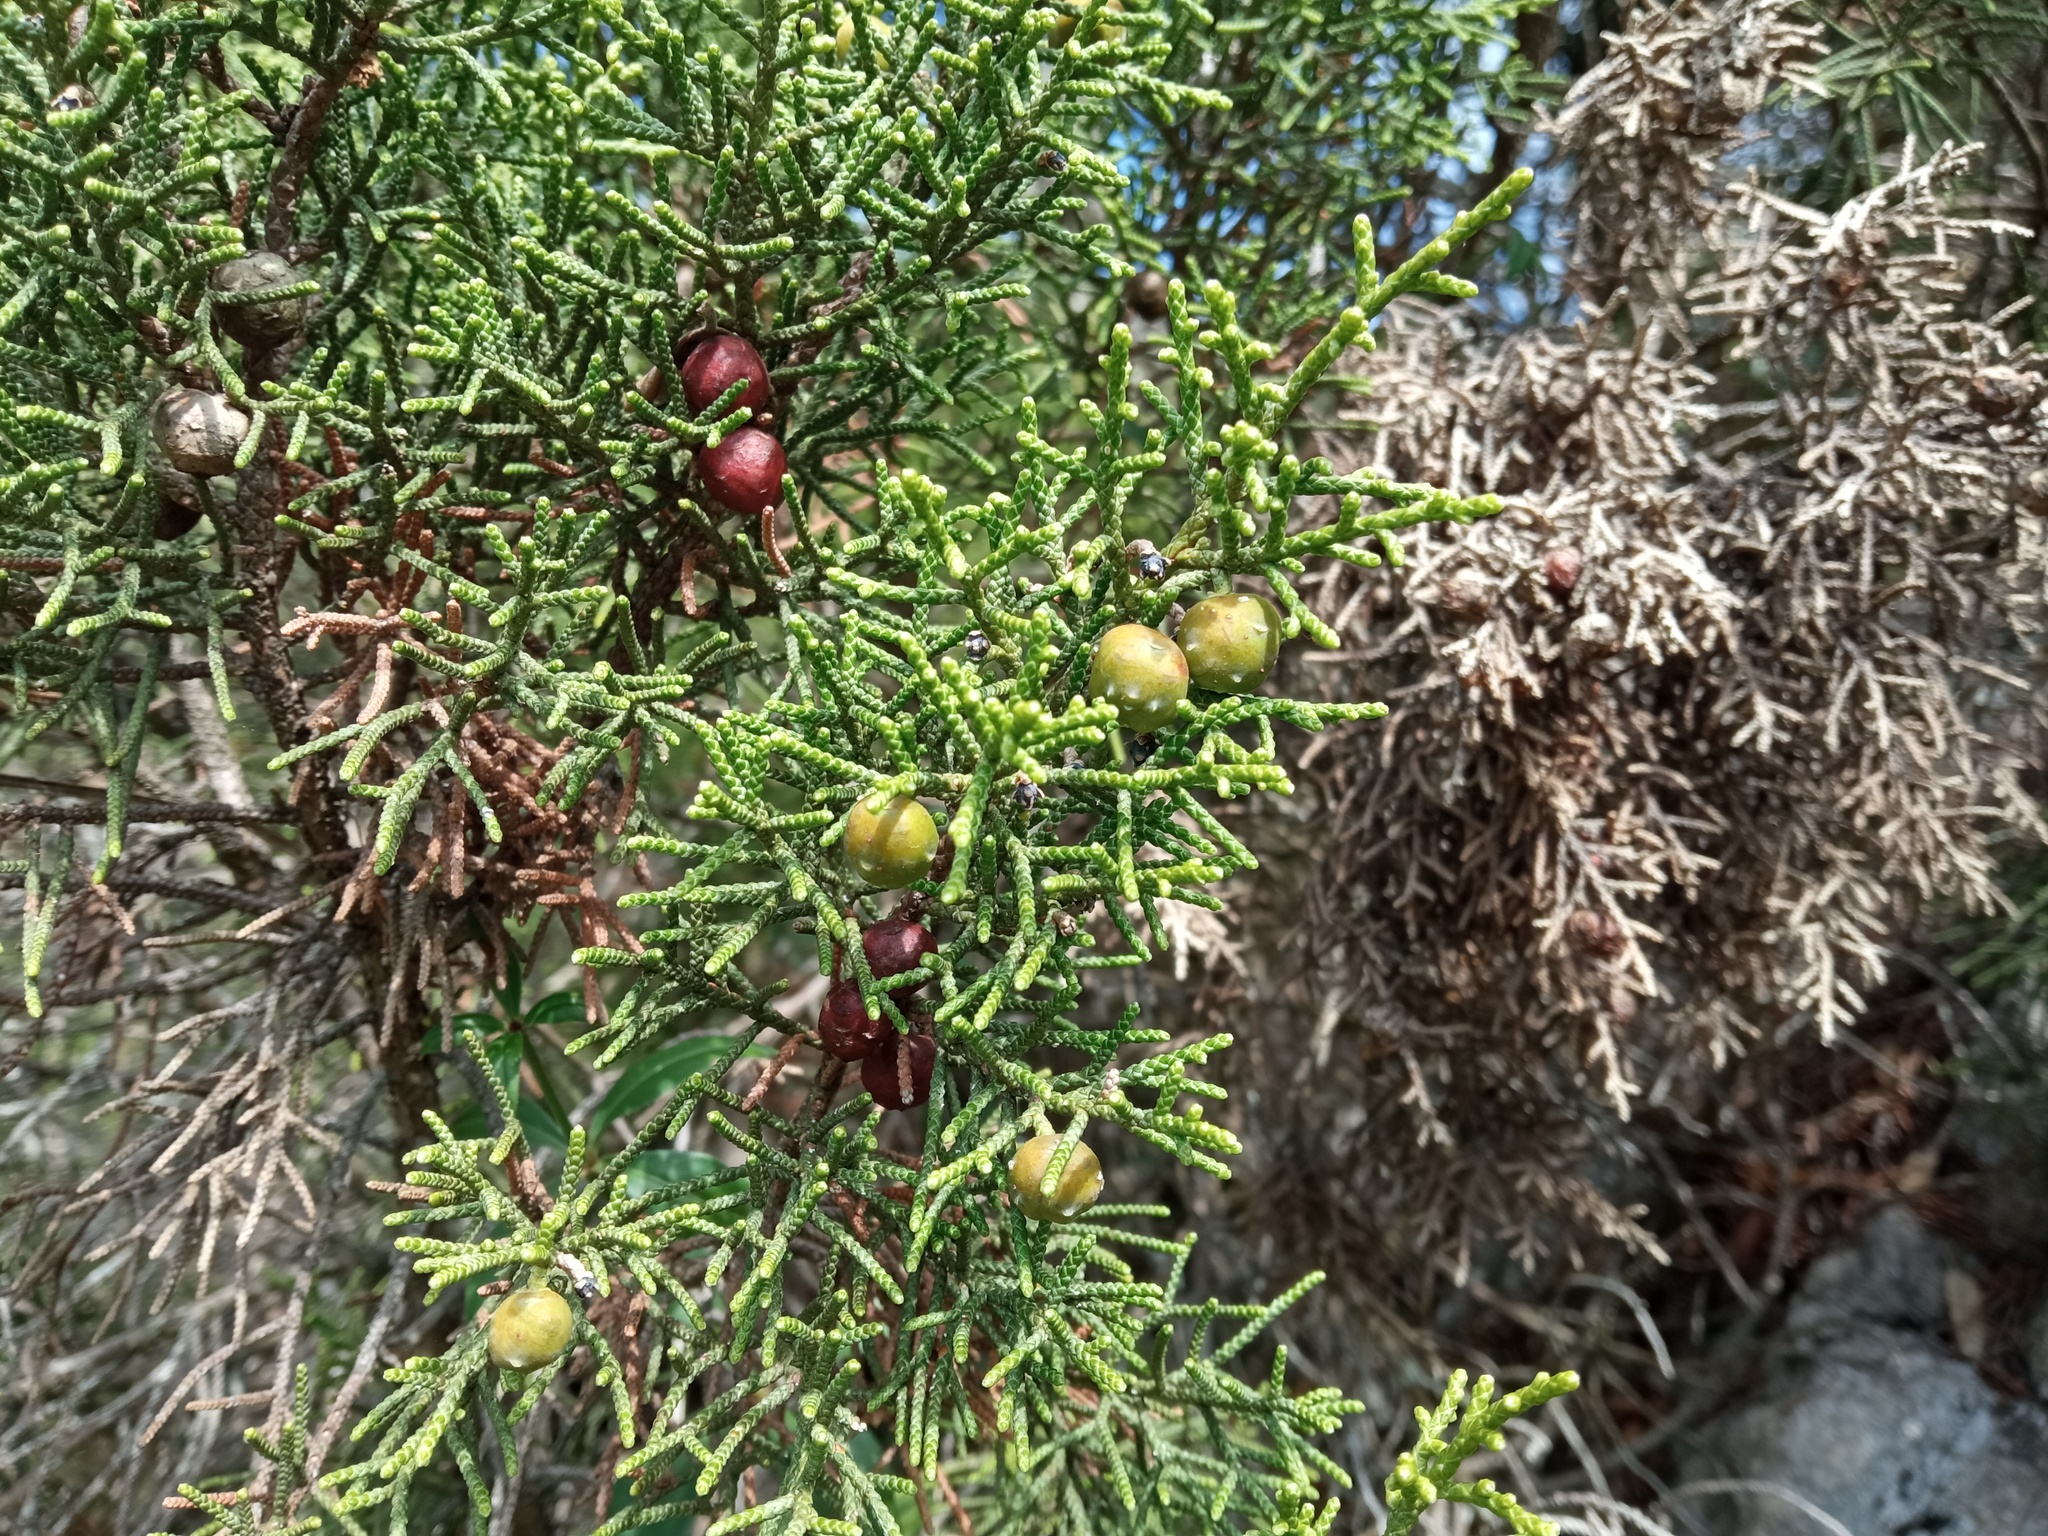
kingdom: Plantae
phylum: Tracheophyta
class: Pinopsida
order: Pinales
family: Cupressaceae
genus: Juniperus
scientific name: Juniperus phoenicea
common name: Phoenician juniper
